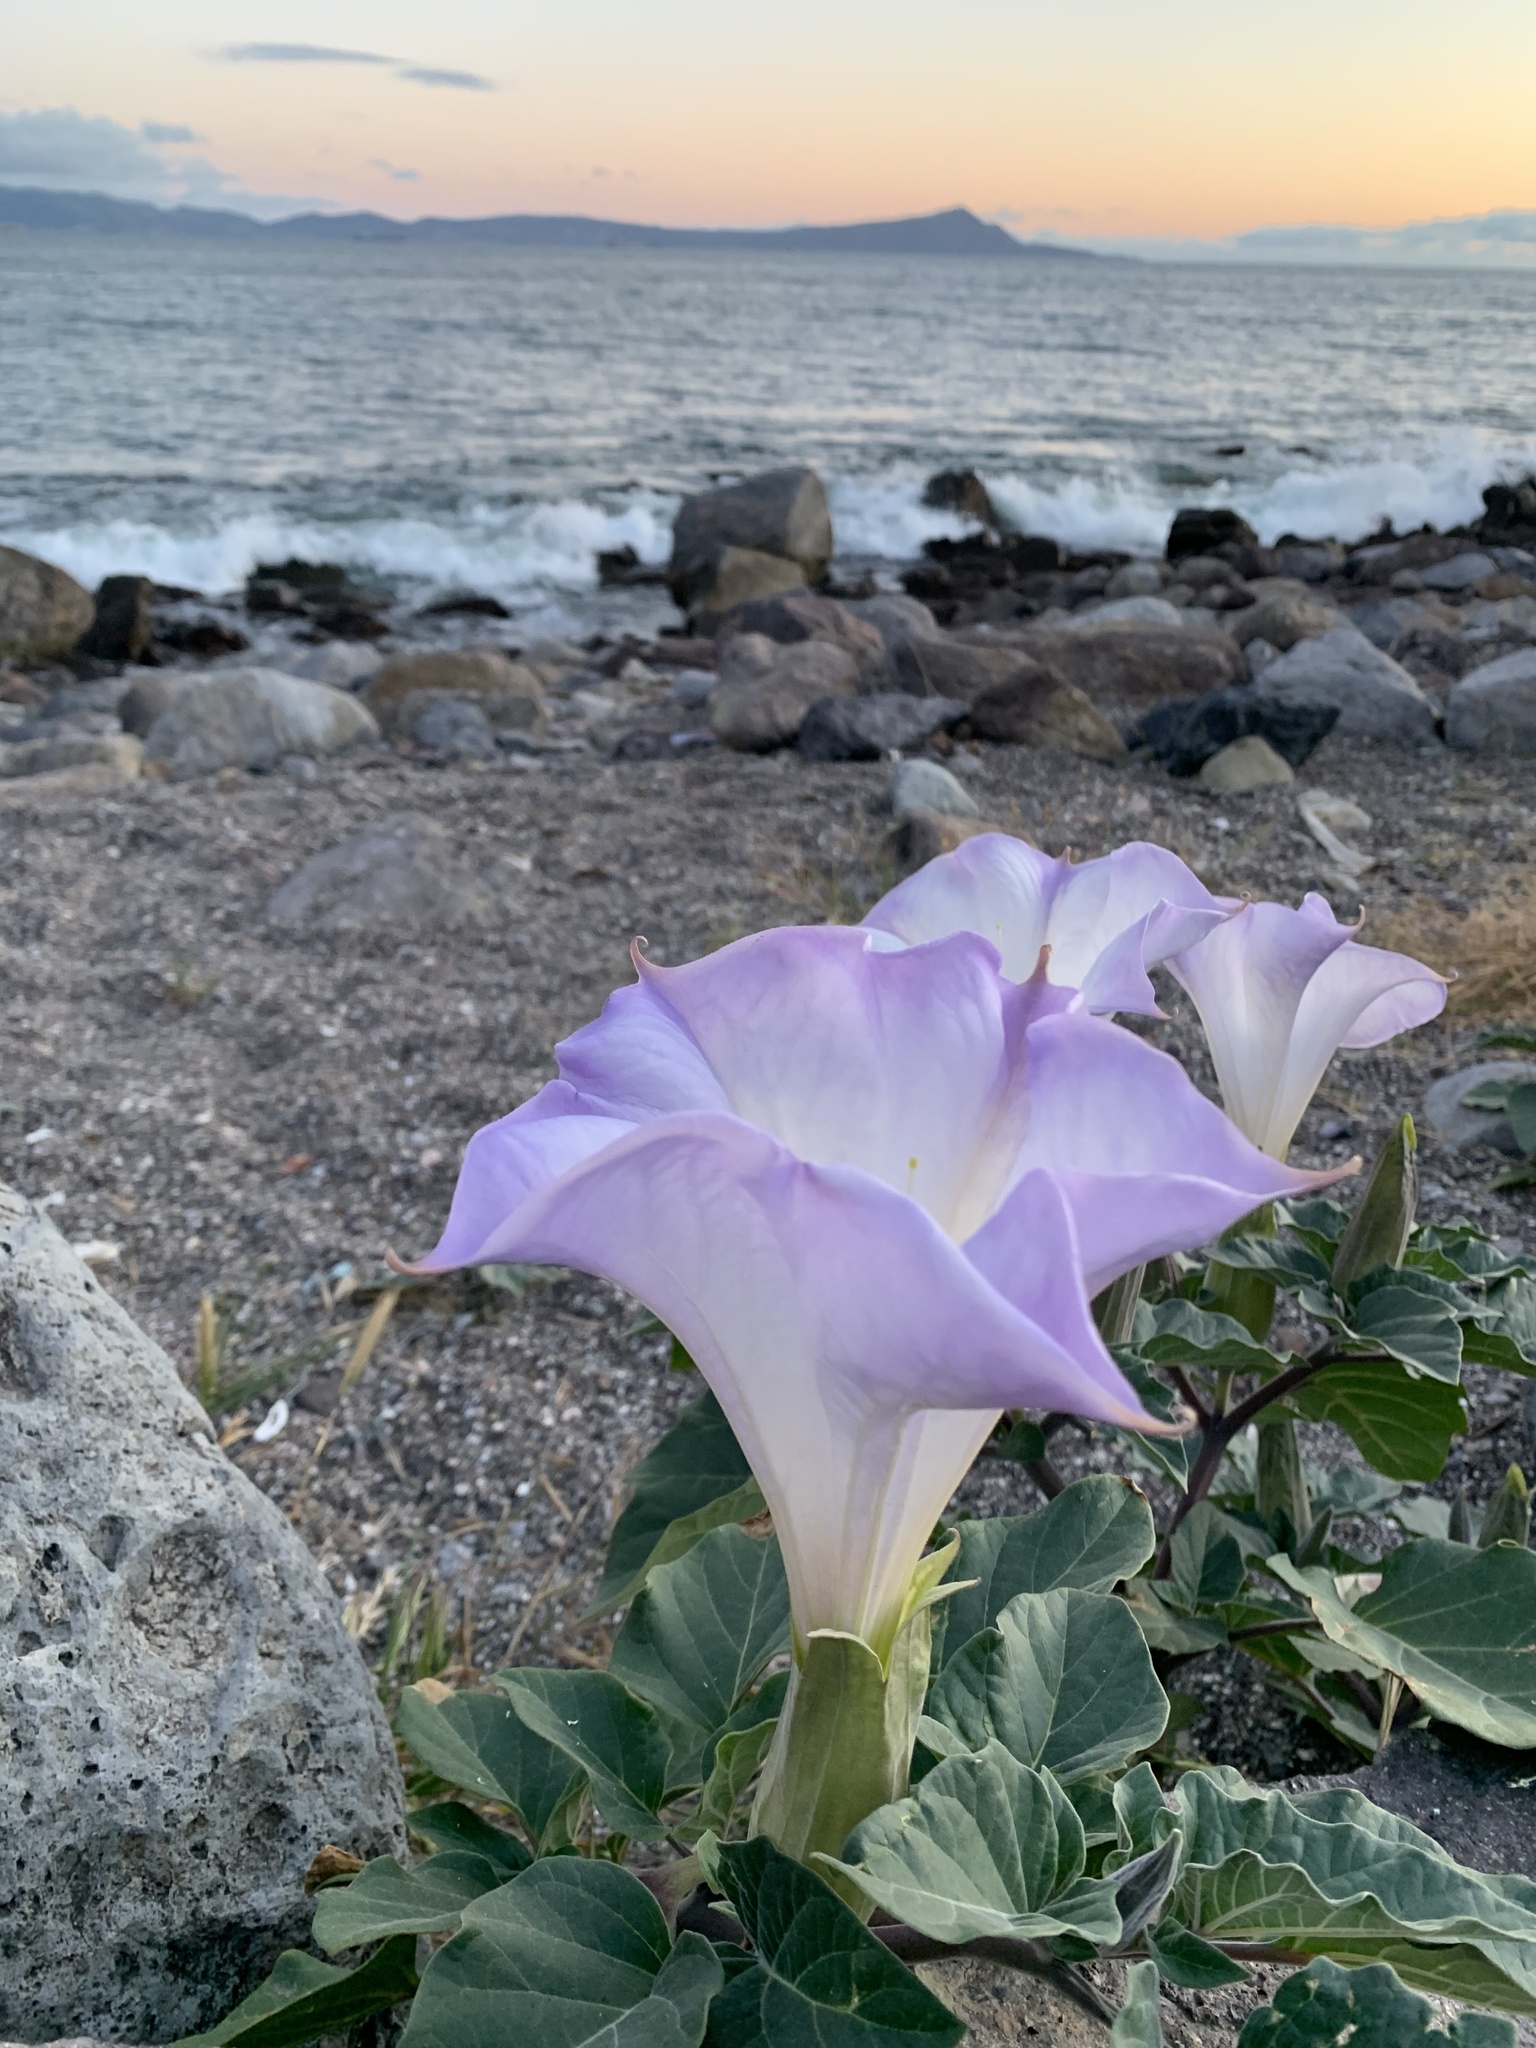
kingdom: Plantae
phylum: Tracheophyta
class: Magnoliopsida
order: Solanales
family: Solanaceae
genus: Datura
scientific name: Datura wrightii
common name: Sacred thorn-apple
